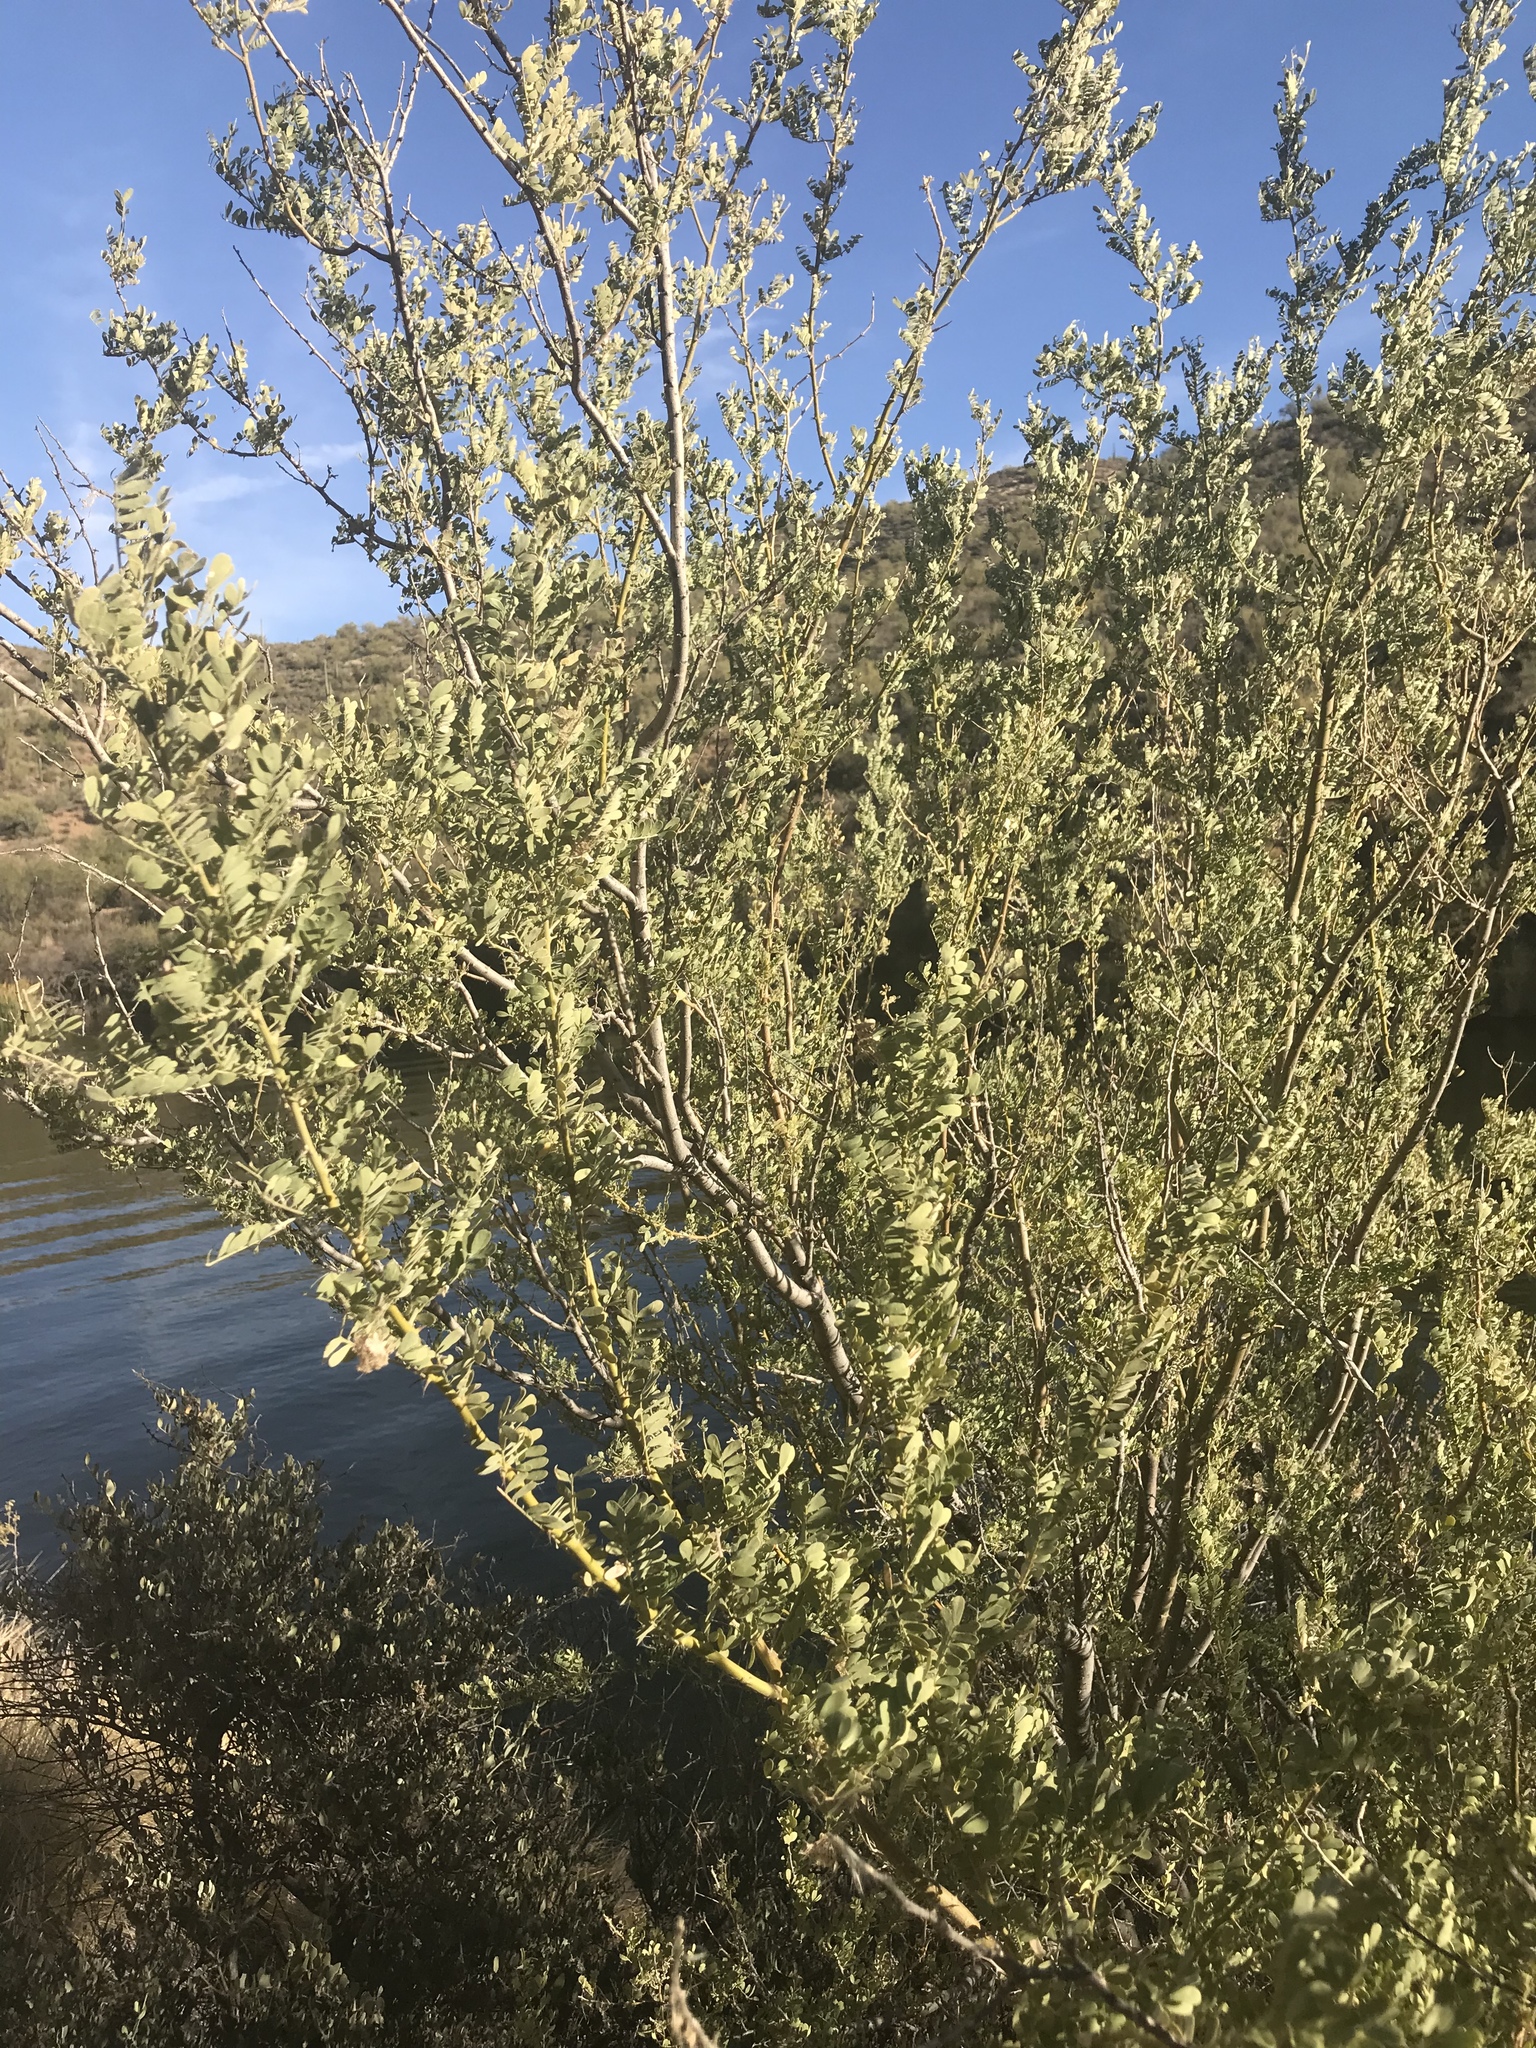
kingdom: Plantae
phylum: Tracheophyta
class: Magnoliopsida
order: Fabales
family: Fabaceae
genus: Olneya
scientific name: Olneya tesota
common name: Desert ironwood
